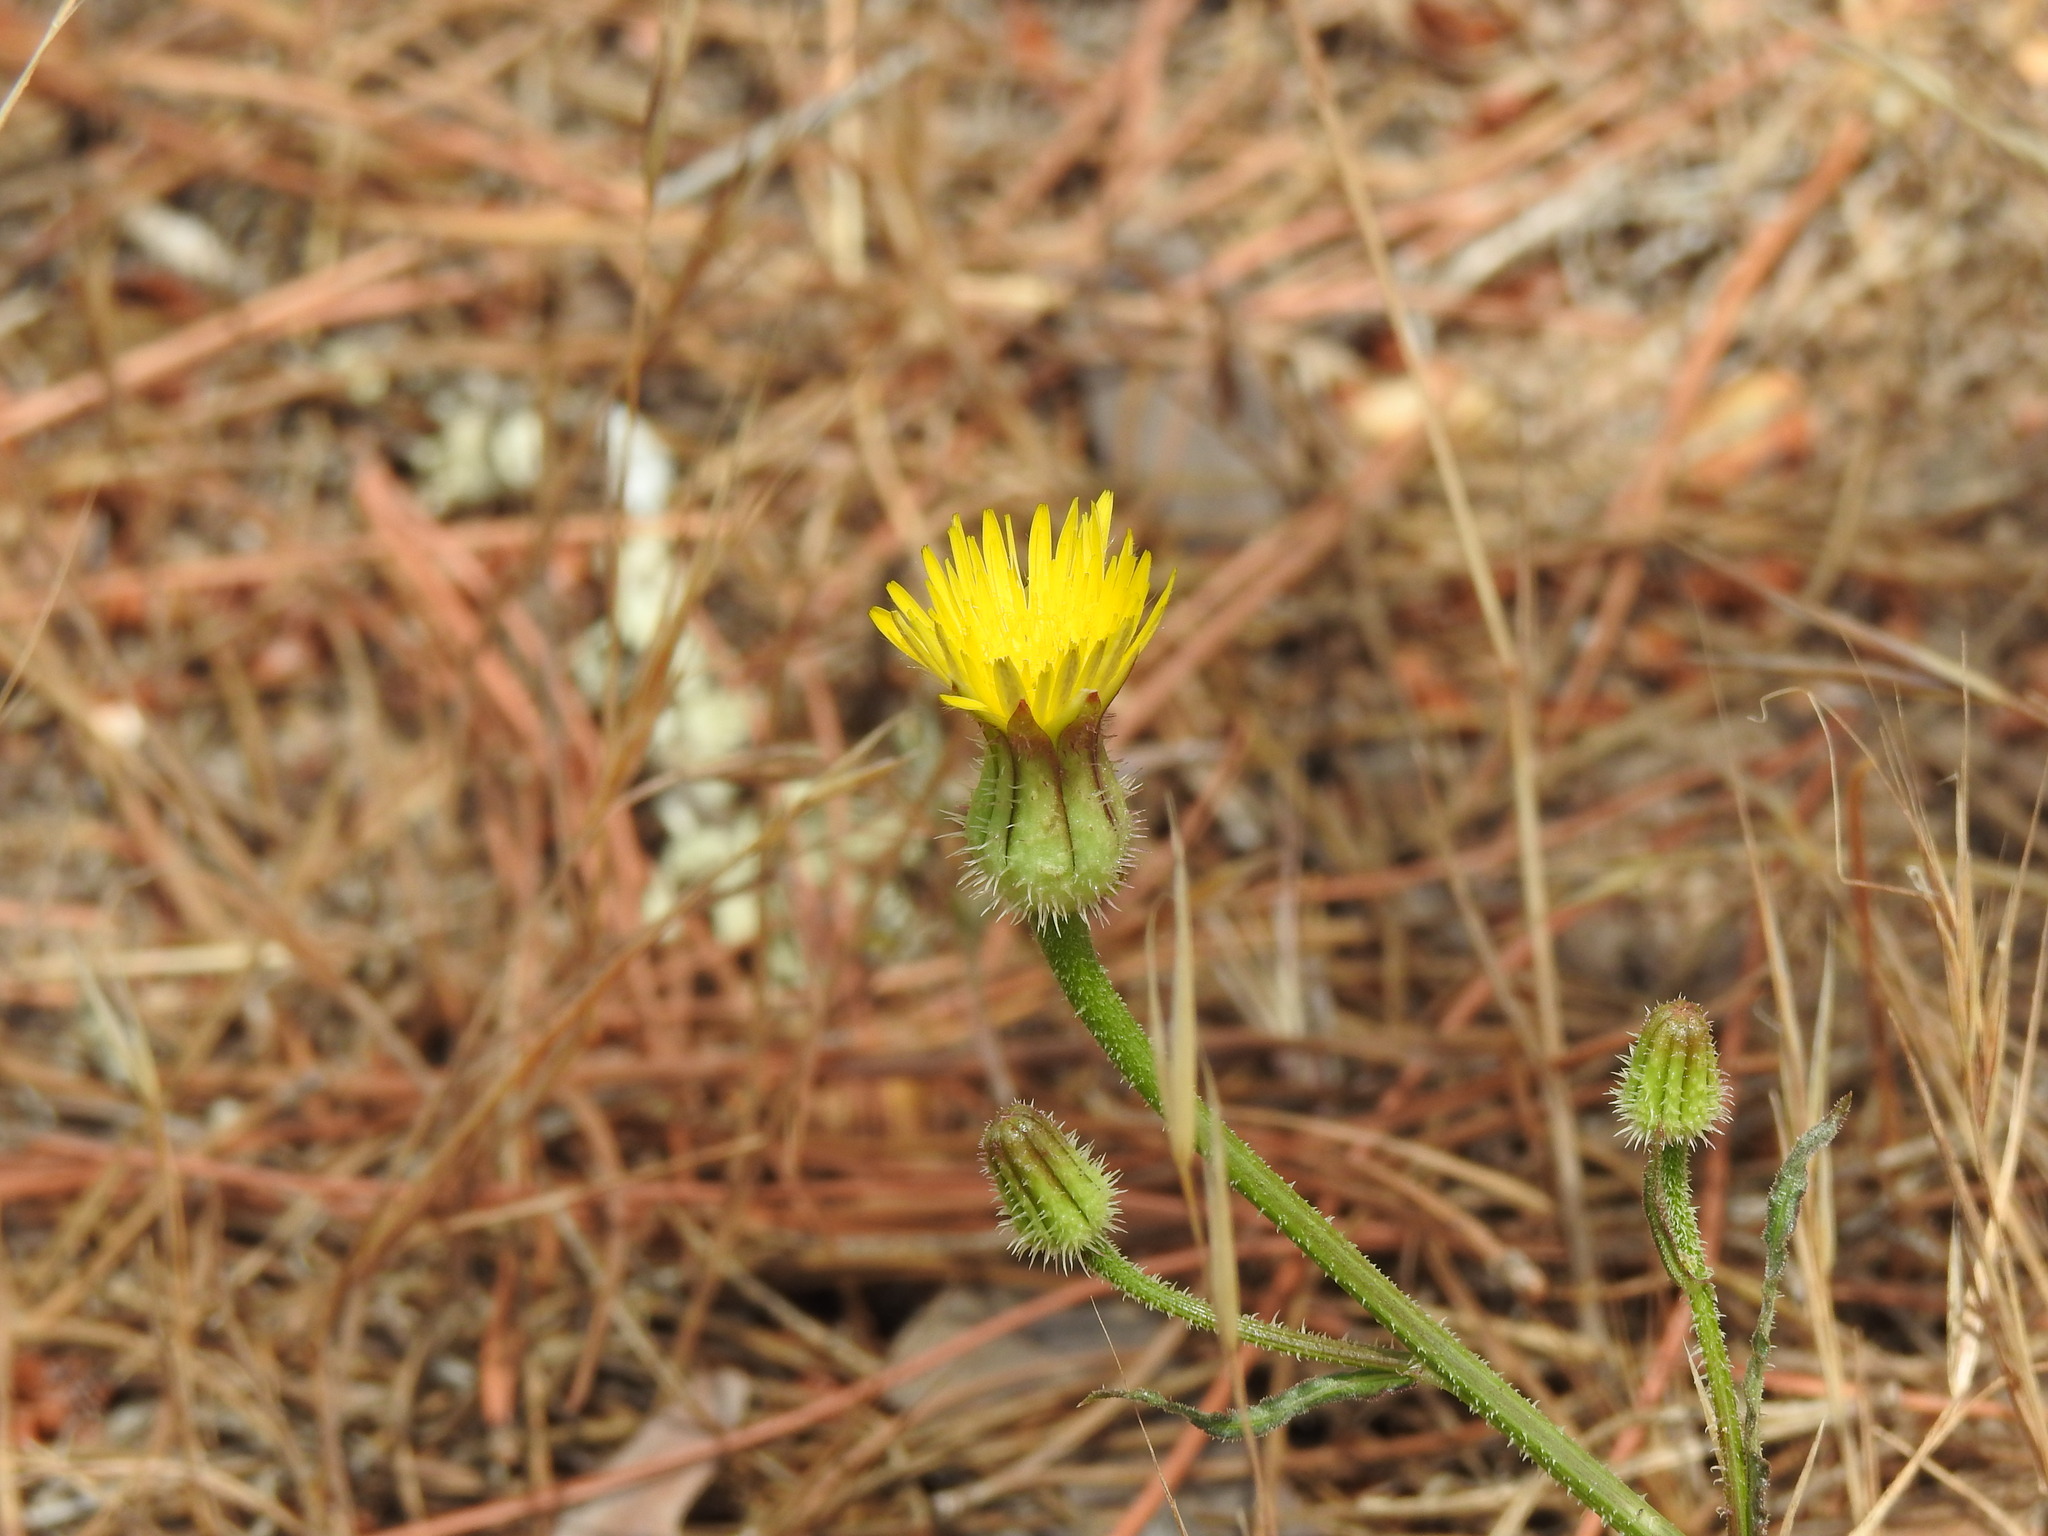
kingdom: Plantae
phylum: Tracheophyta
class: Magnoliopsida
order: Asterales
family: Asteraceae
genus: Urospermum
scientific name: Urospermum picroides
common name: False hawkbit
